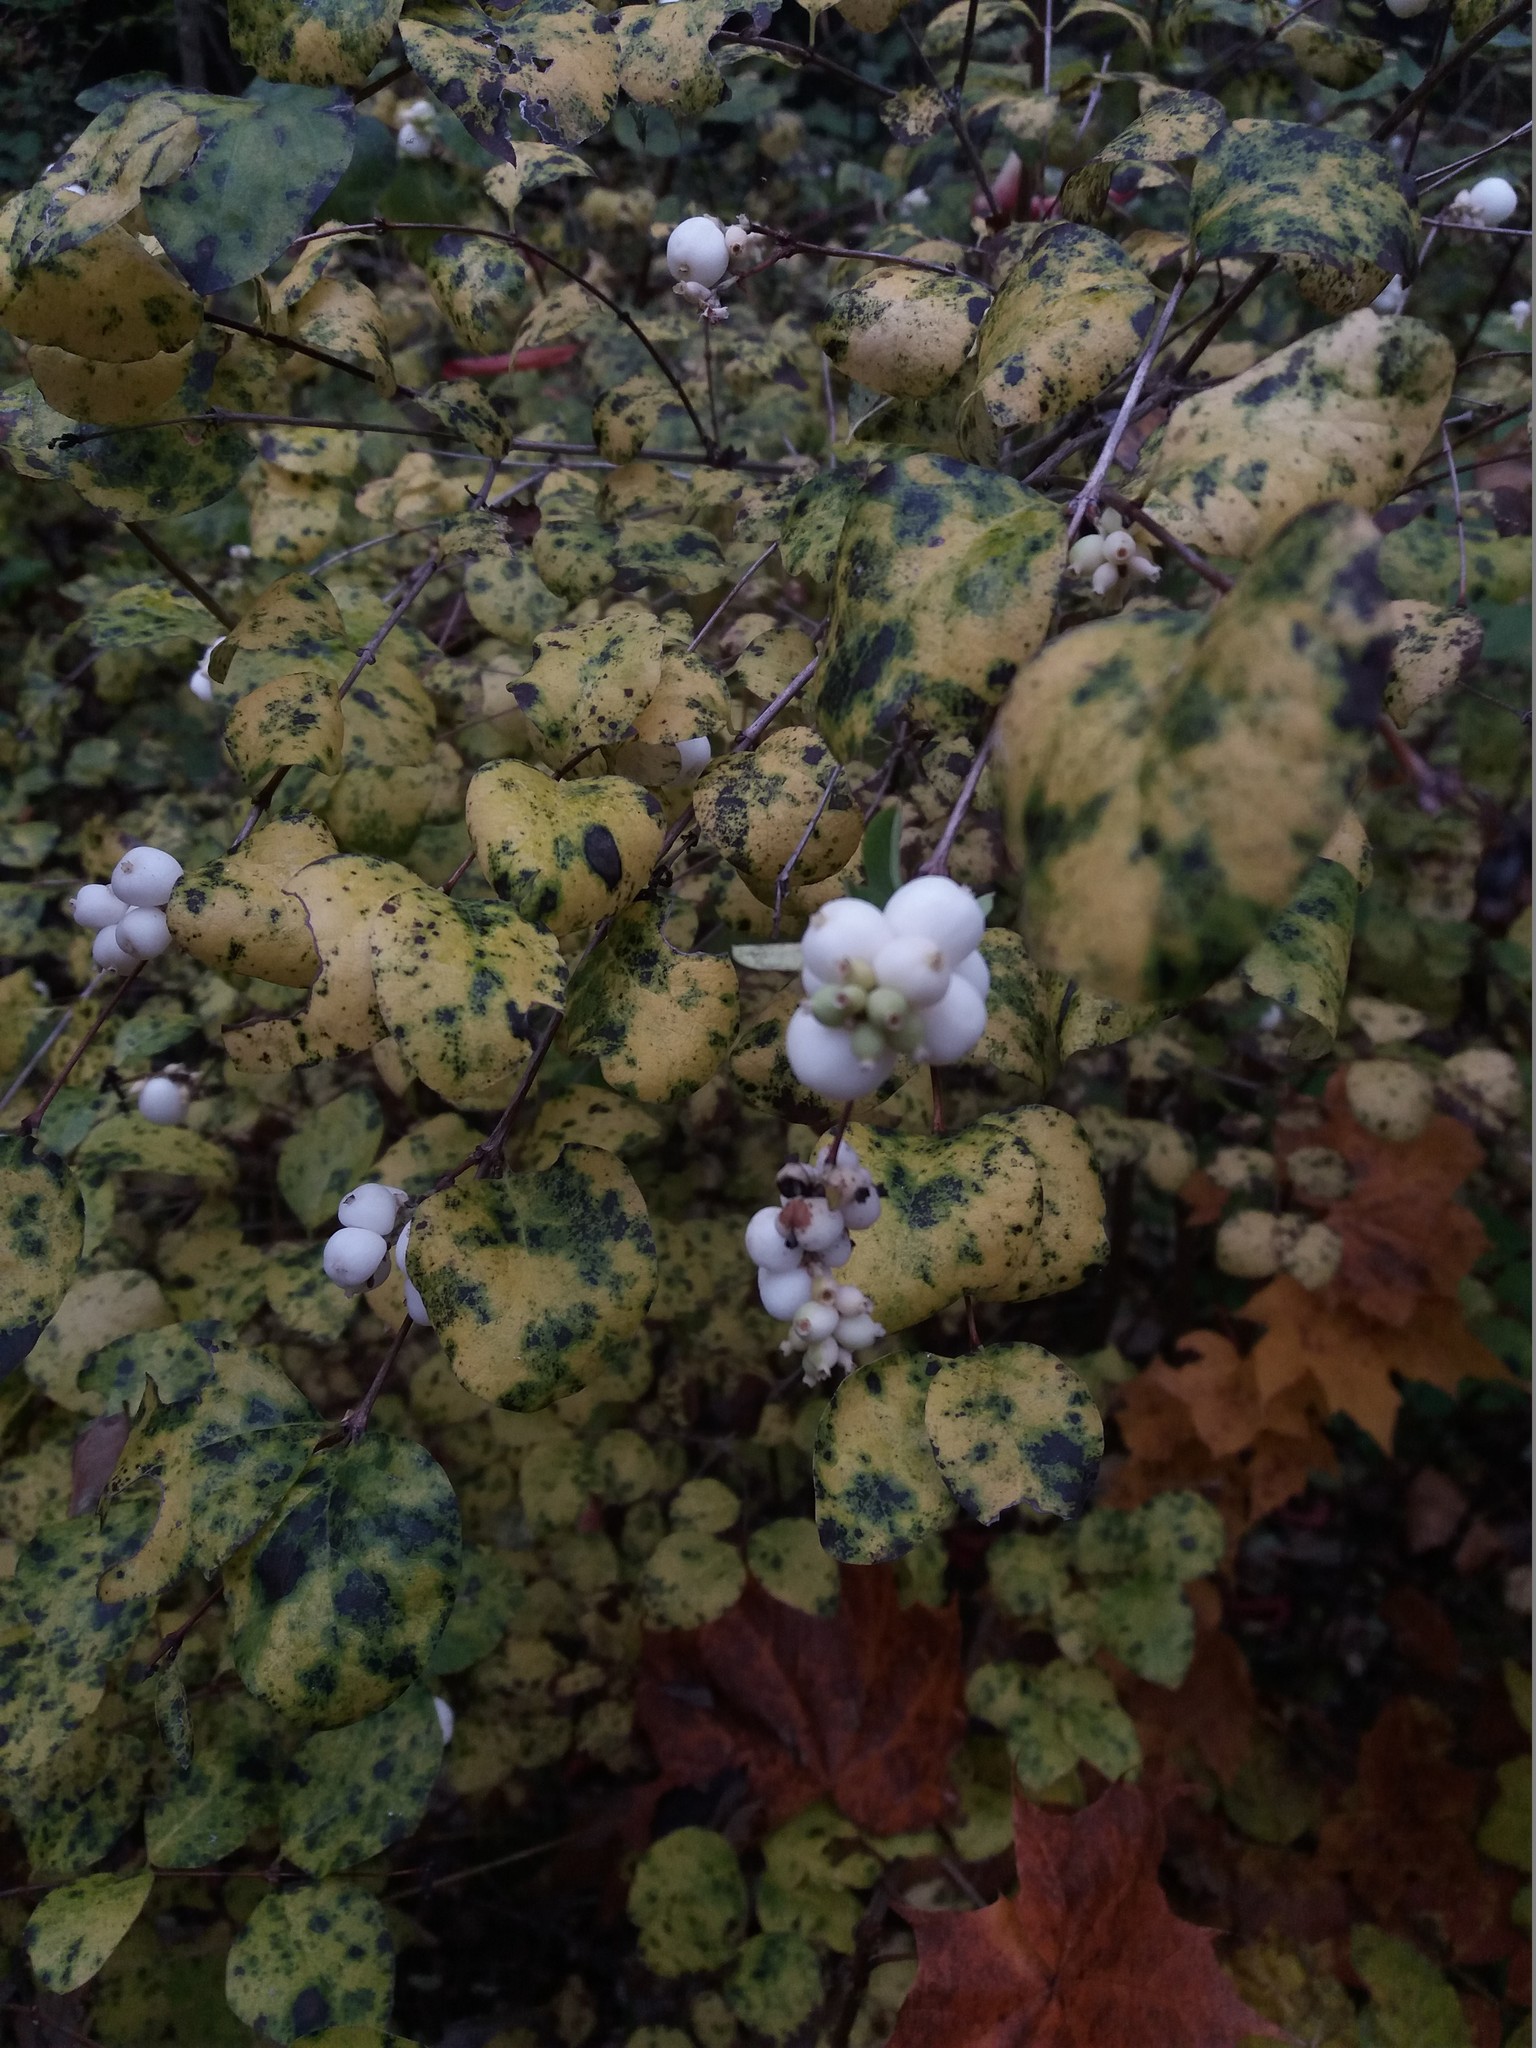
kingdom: Plantae
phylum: Tracheophyta
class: Magnoliopsida
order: Dipsacales
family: Caprifoliaceae
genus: Symphoricarpos
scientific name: Symphoricarpos albus
